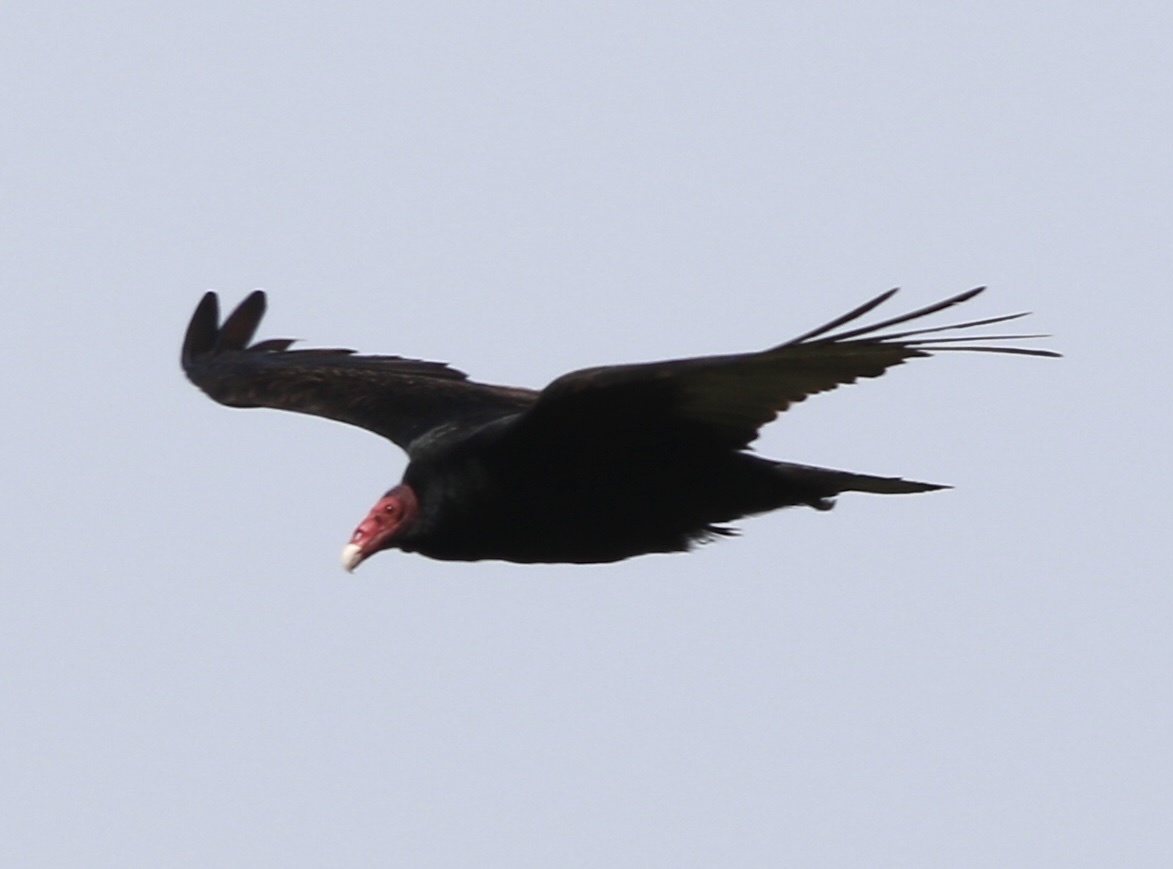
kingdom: Animalia
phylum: Chordata
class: Aves
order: Accipitriformes
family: Cathartidae
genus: Cathartes
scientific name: Cathartes aura
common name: Turkey vulture
